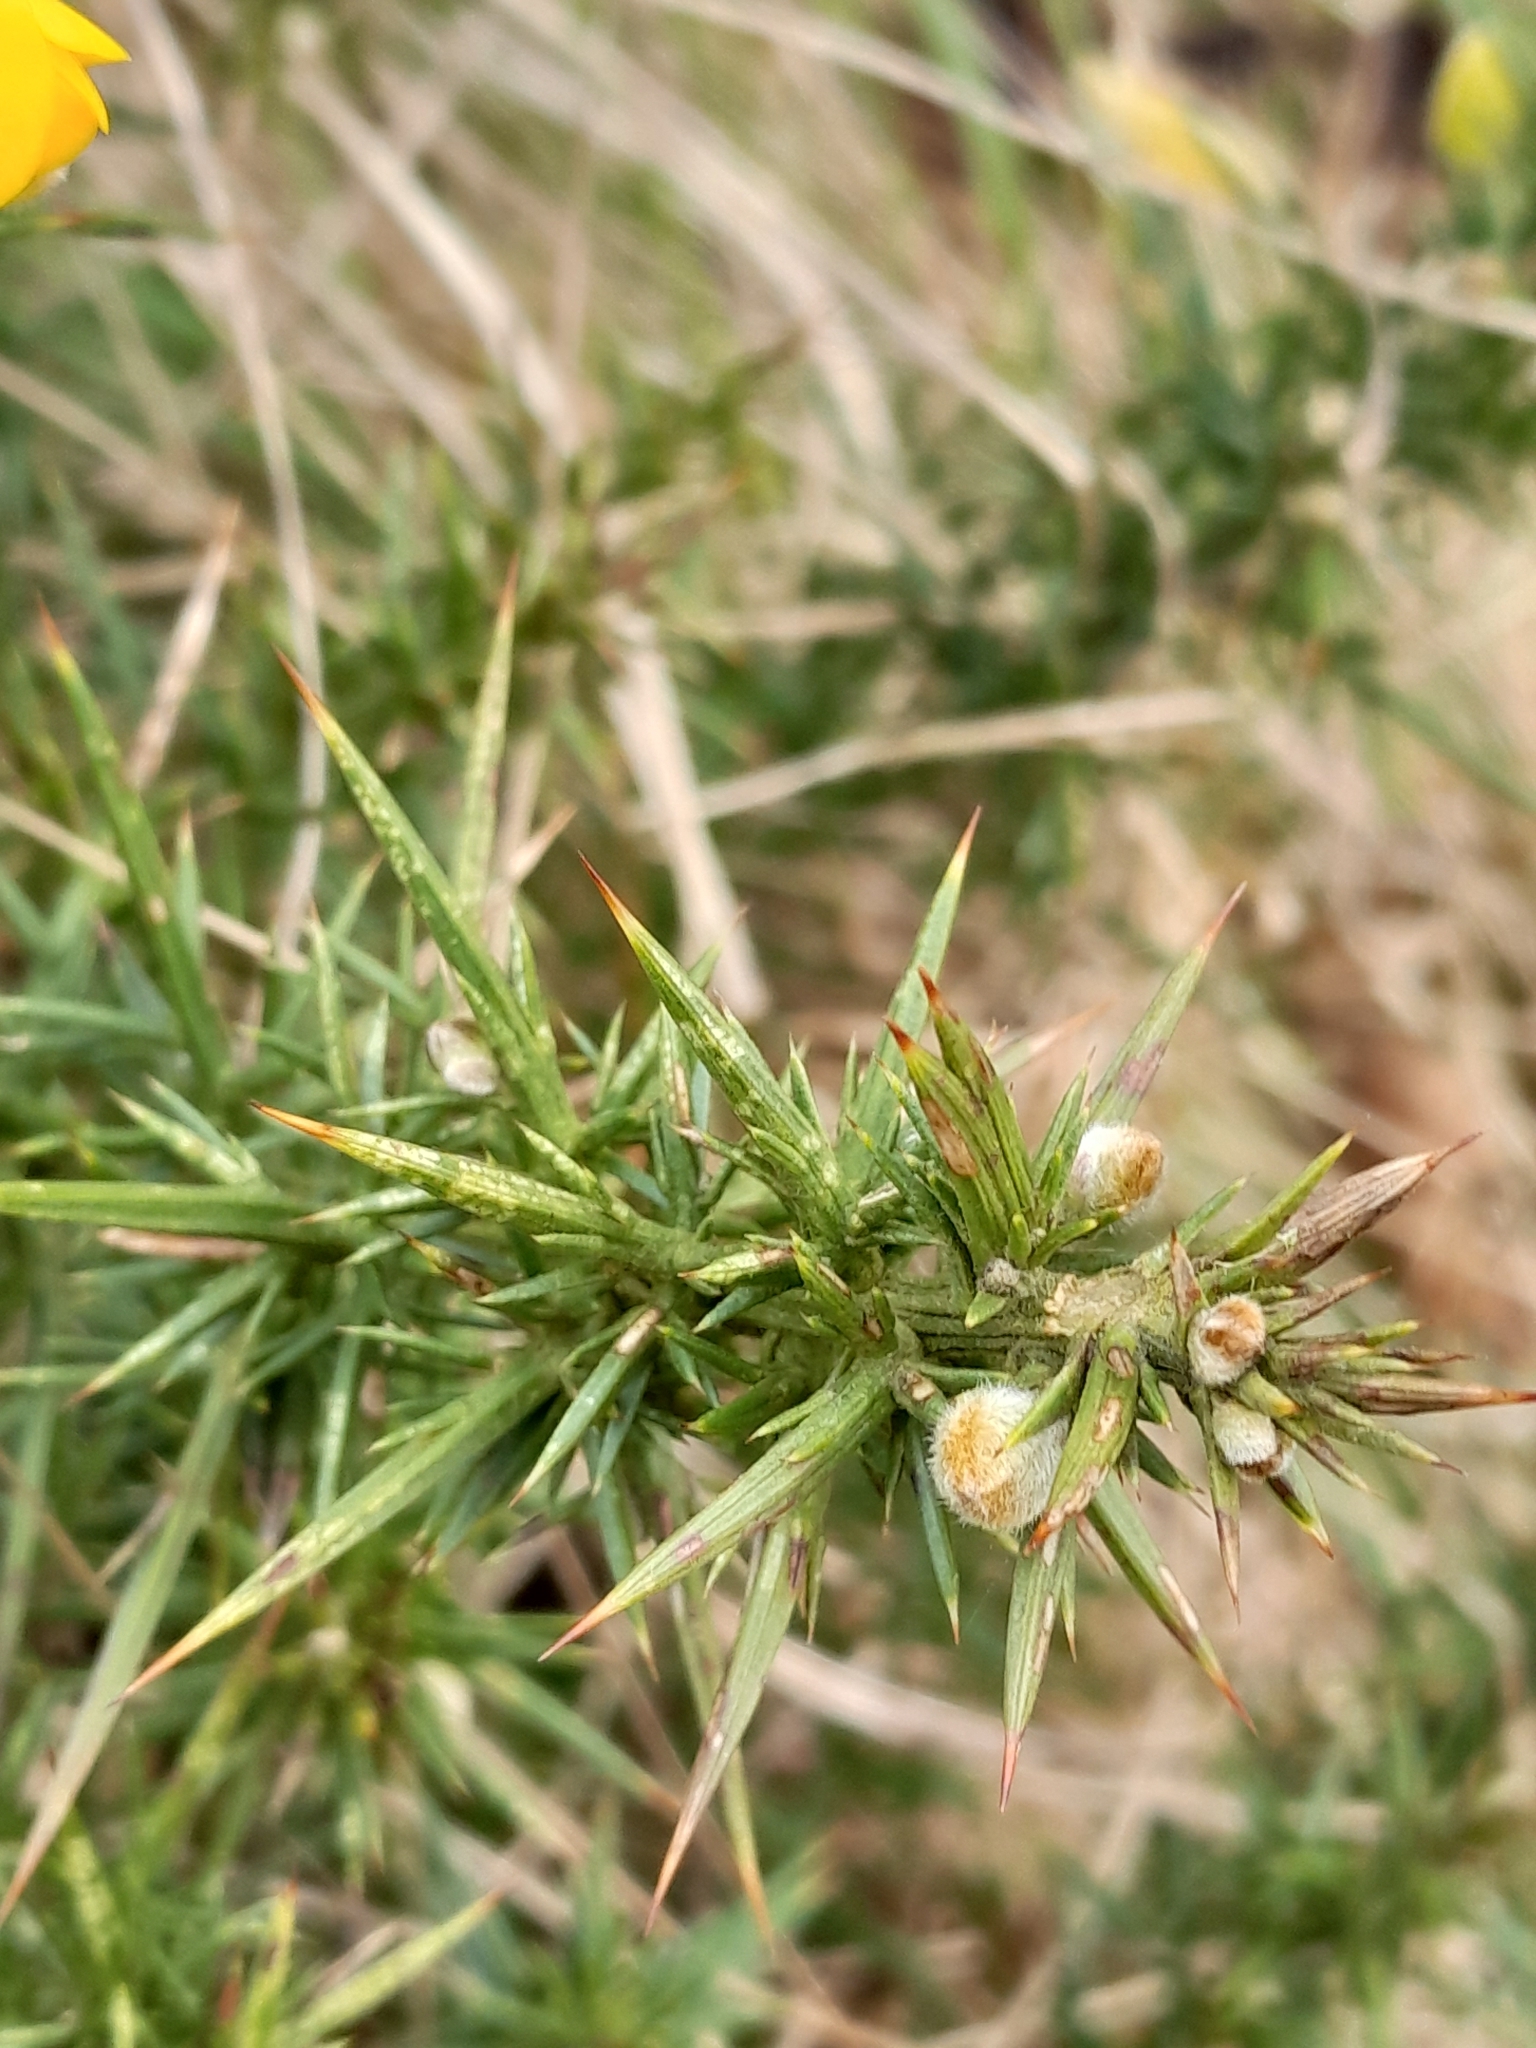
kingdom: Plantae
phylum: Tracheophyta
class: Magnoliopsida
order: Fabales
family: Fabaceae
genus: Ulex
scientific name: Ulex europaeus
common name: Common gorse
